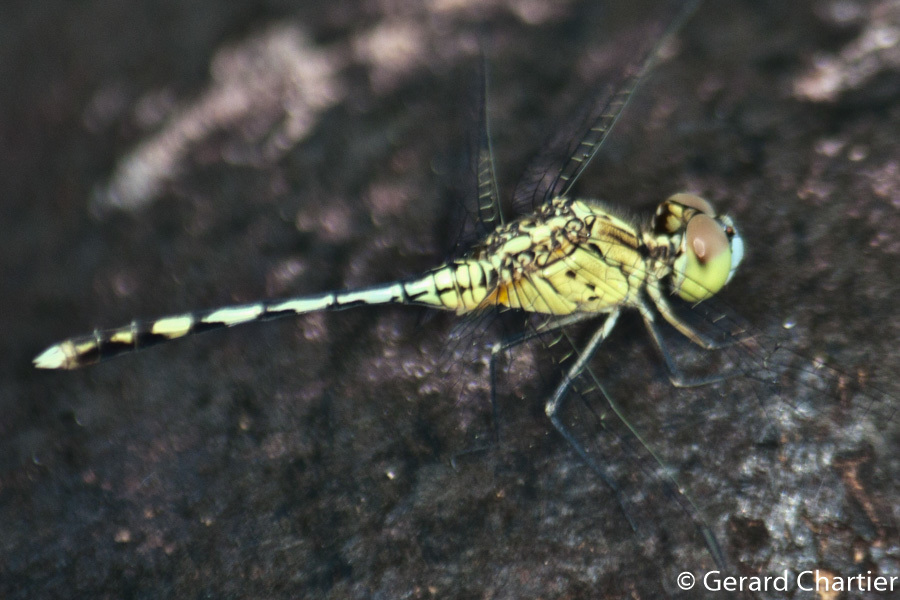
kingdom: Animalia
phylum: Arthropoda
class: Insecta
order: Odonata
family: Libellulidae
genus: Diplacodes
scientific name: Diplacodes trivialis
